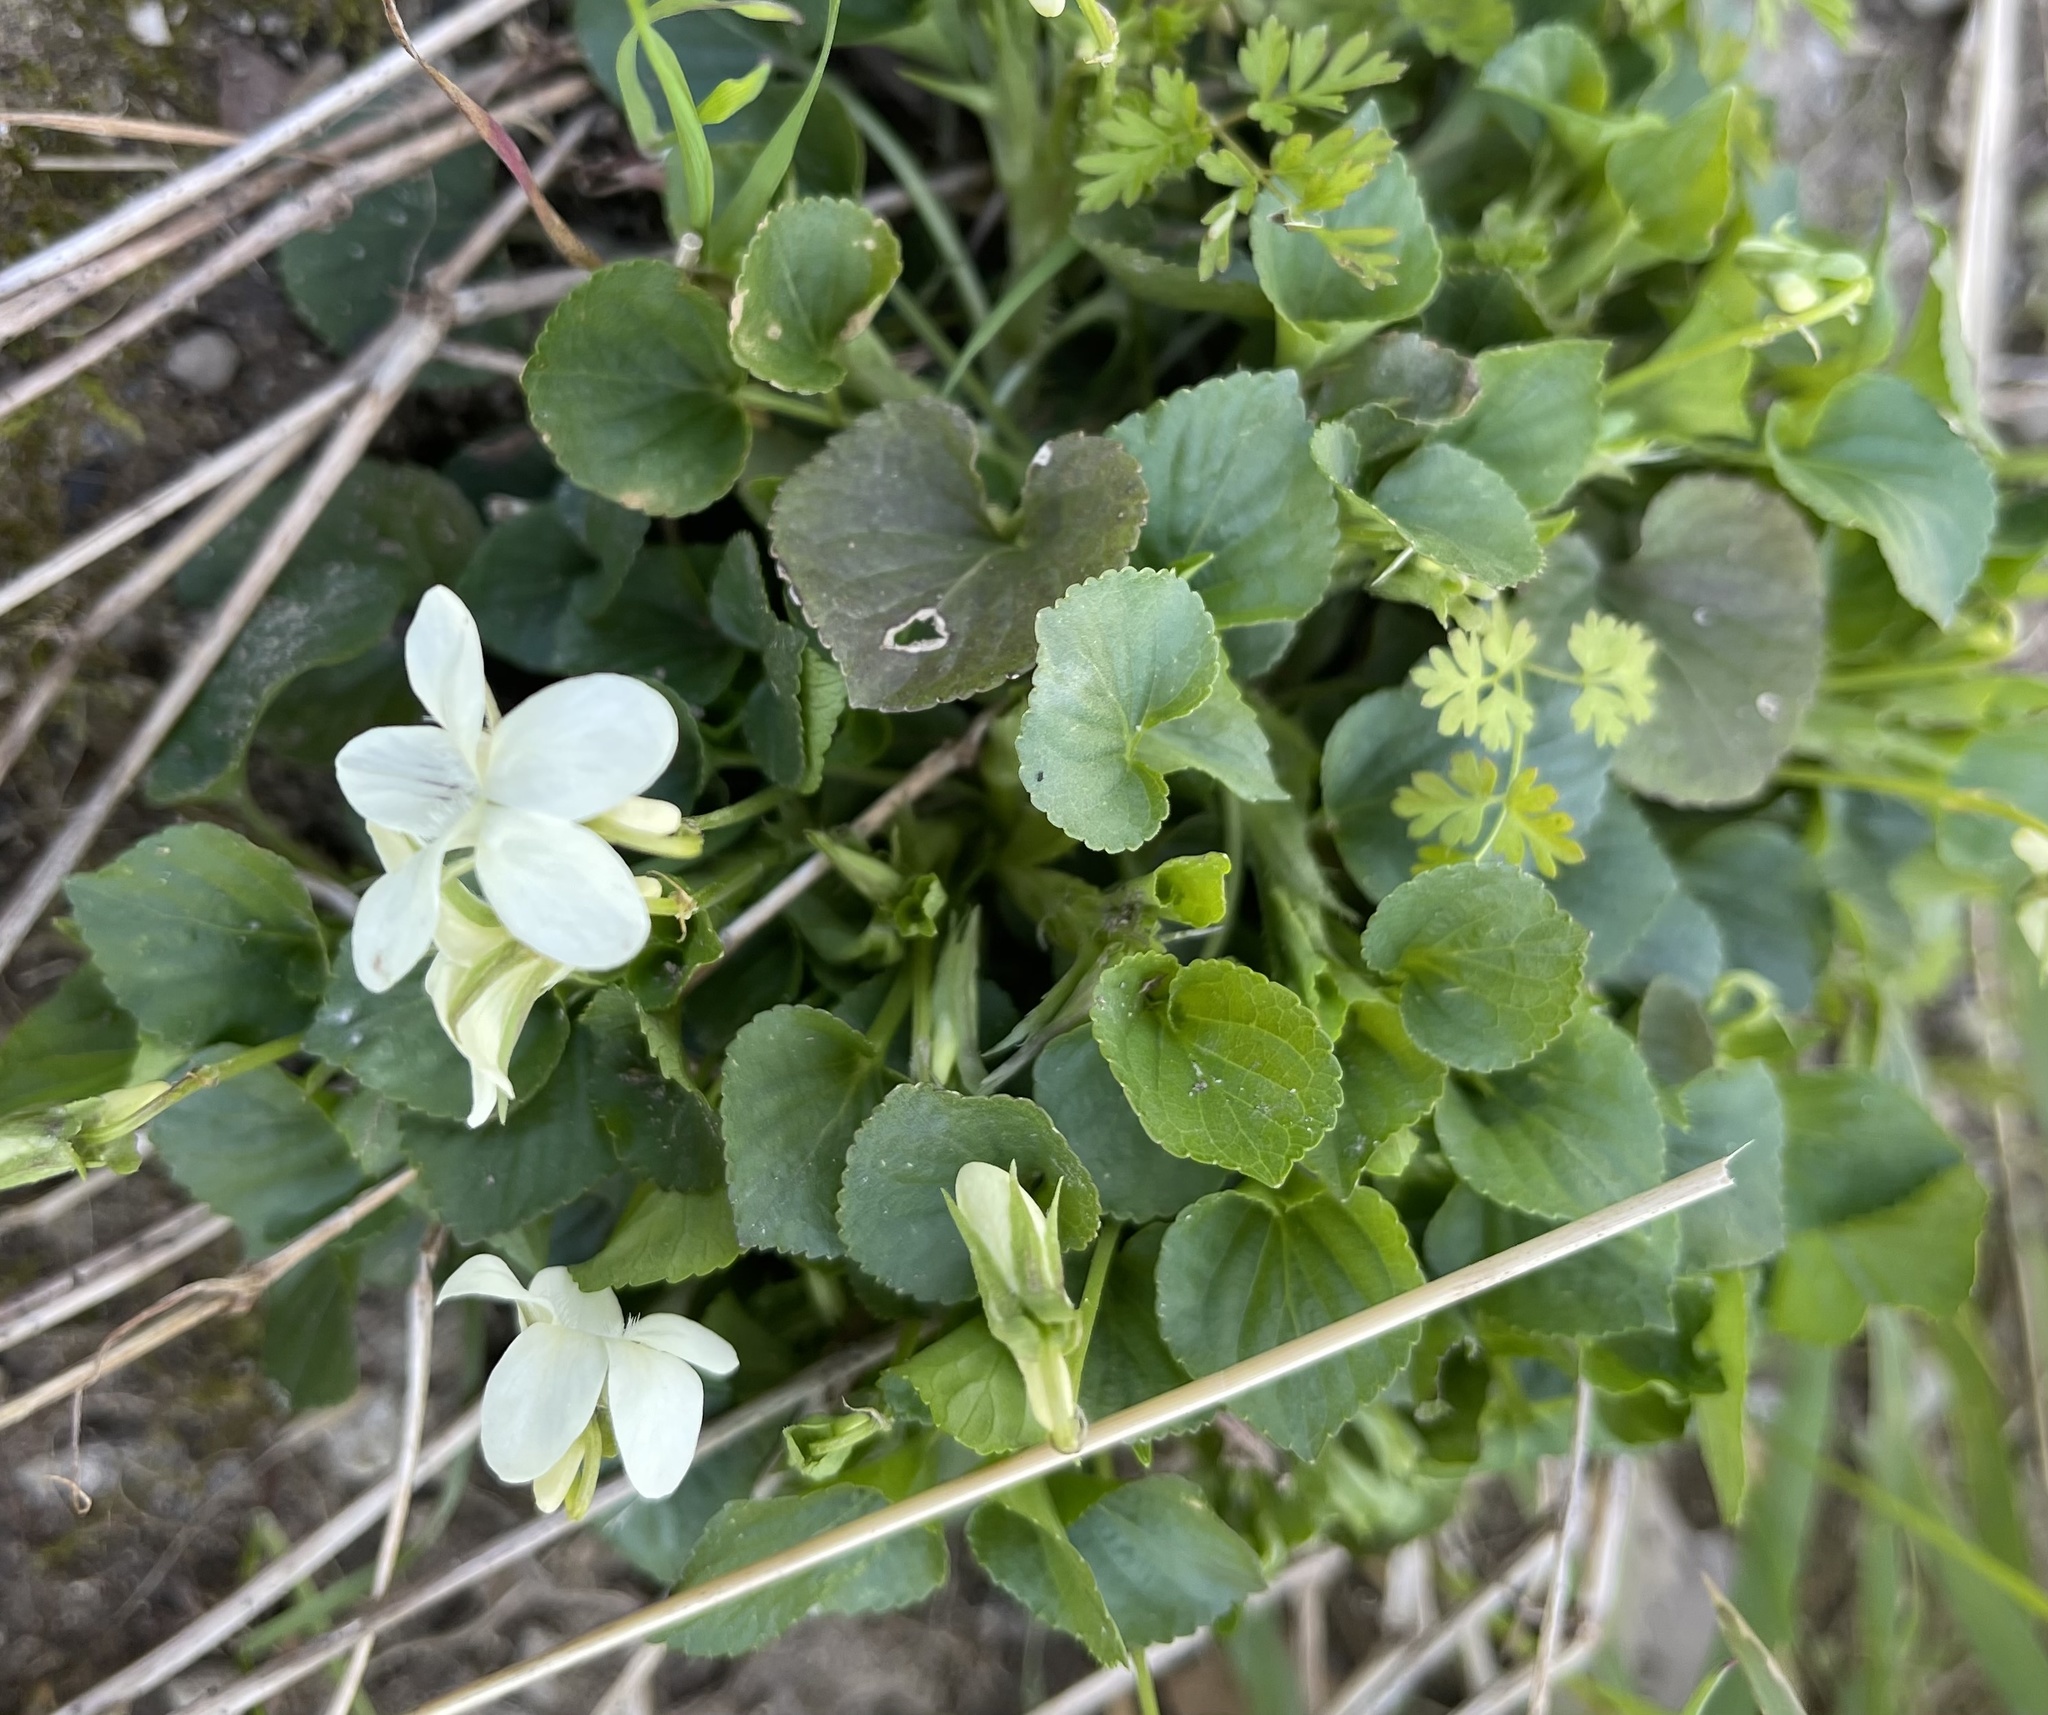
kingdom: Plantae
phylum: Tracheophyta
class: Magnoliopsida
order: Malpighiales
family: Violaceae
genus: Viola
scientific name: Viola striata
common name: Cream violet
